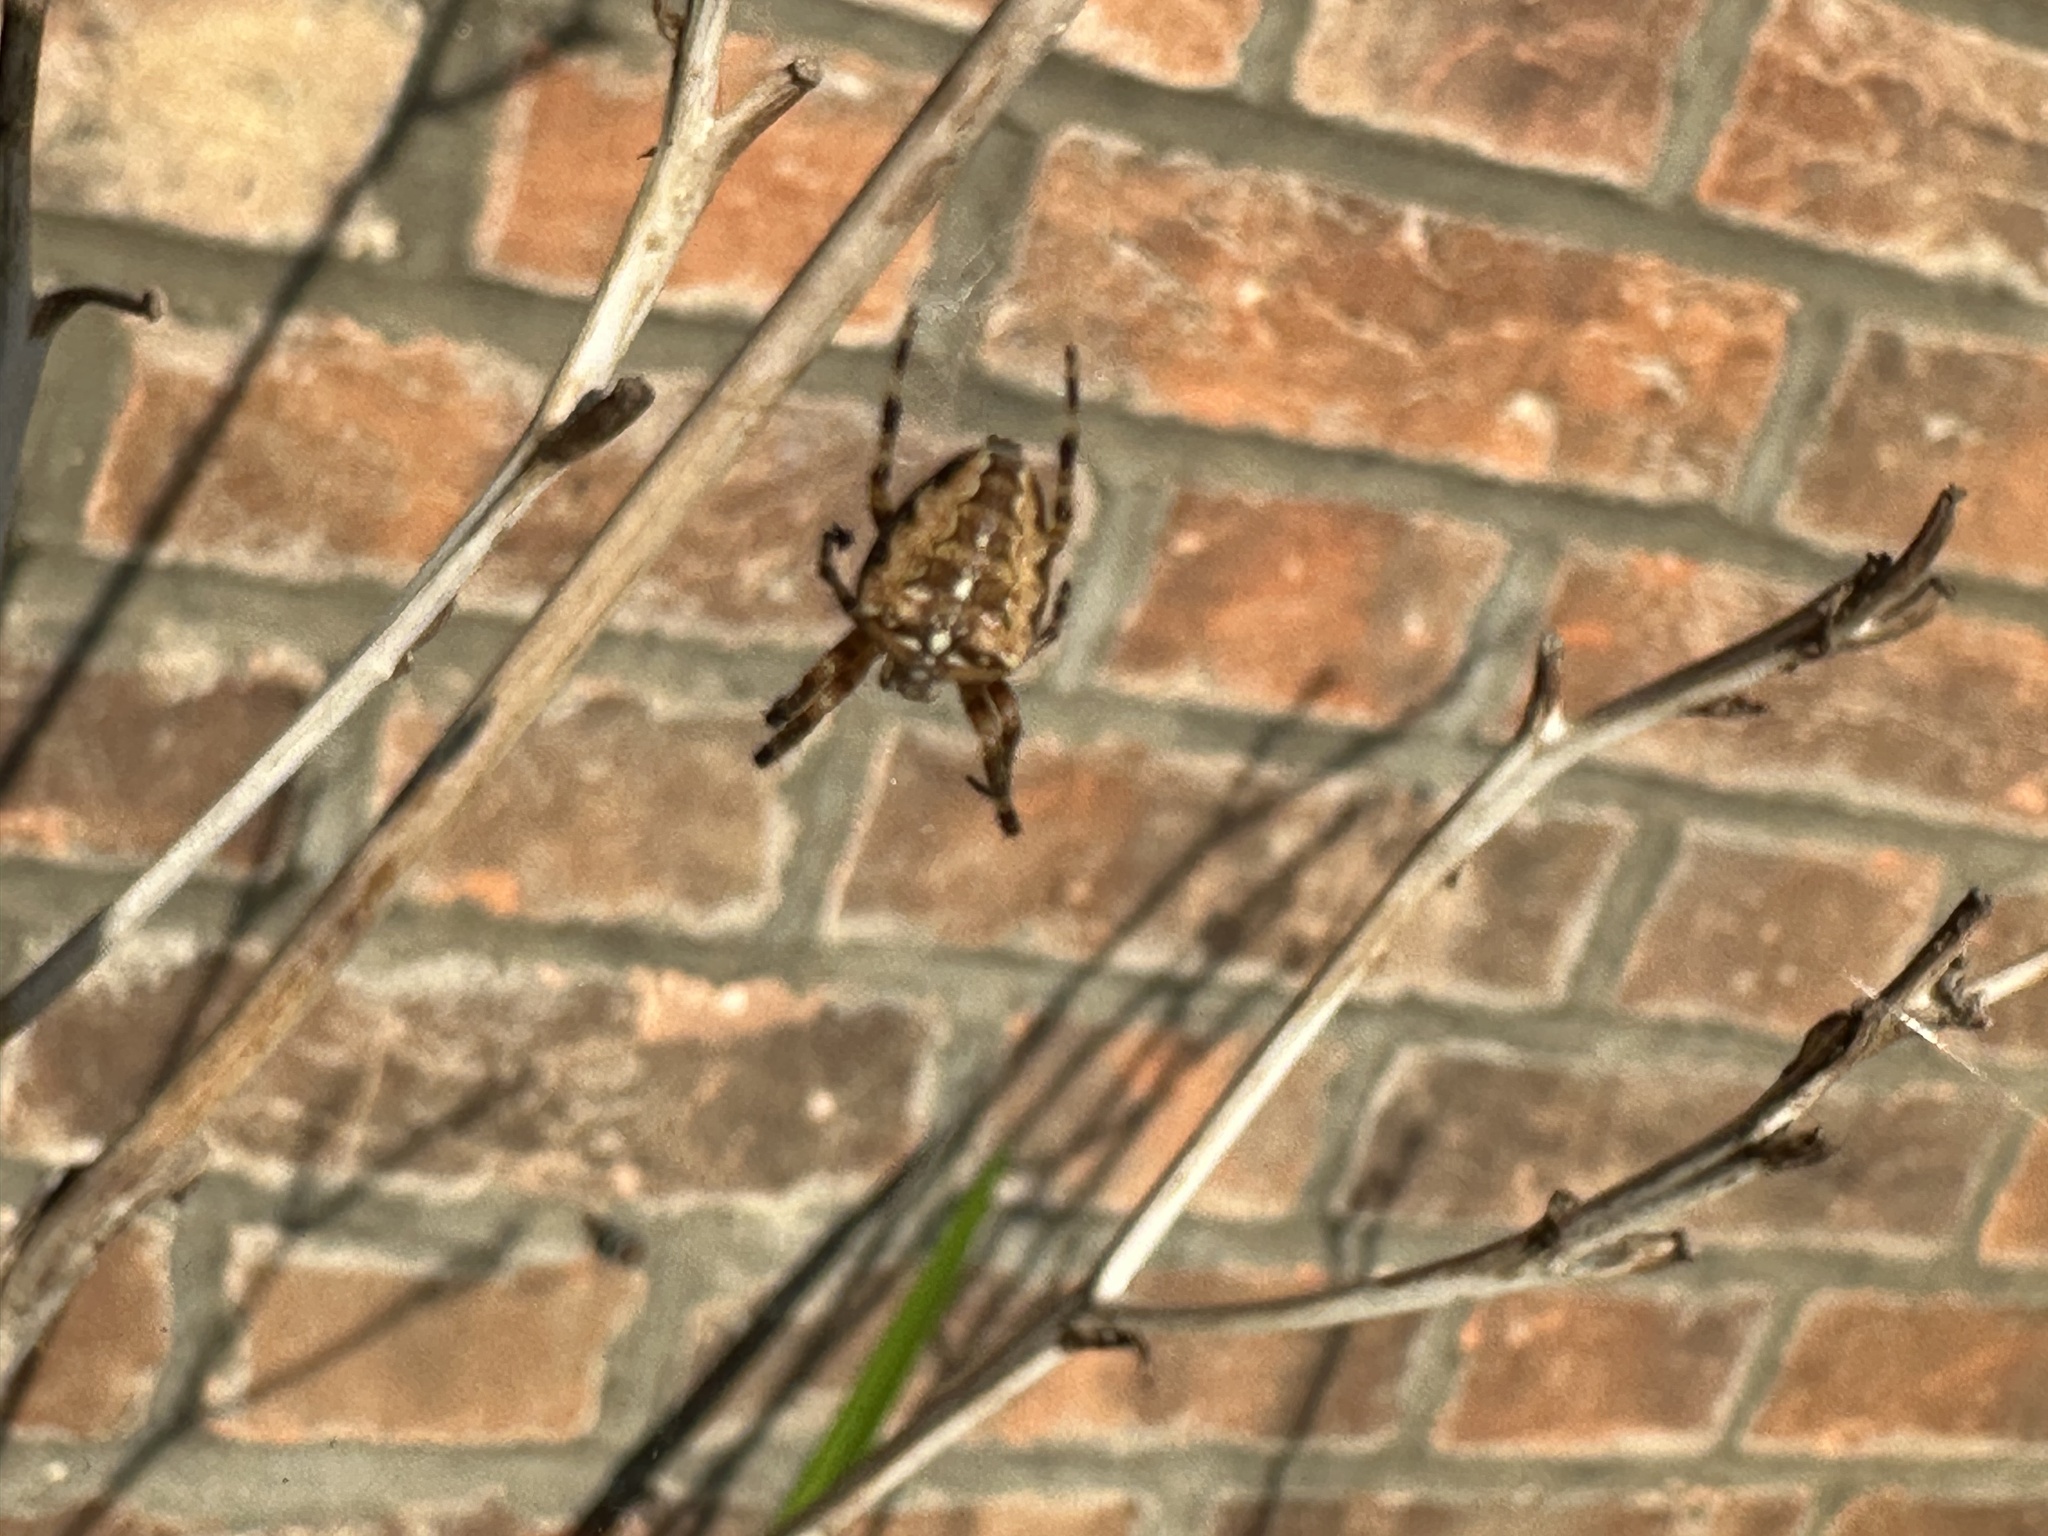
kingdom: Animalia
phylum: Arthropoda
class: Arachnida
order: Araneae
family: Araneidae
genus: Araneus
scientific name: Araneus diadematus
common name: Cross orbweaver
